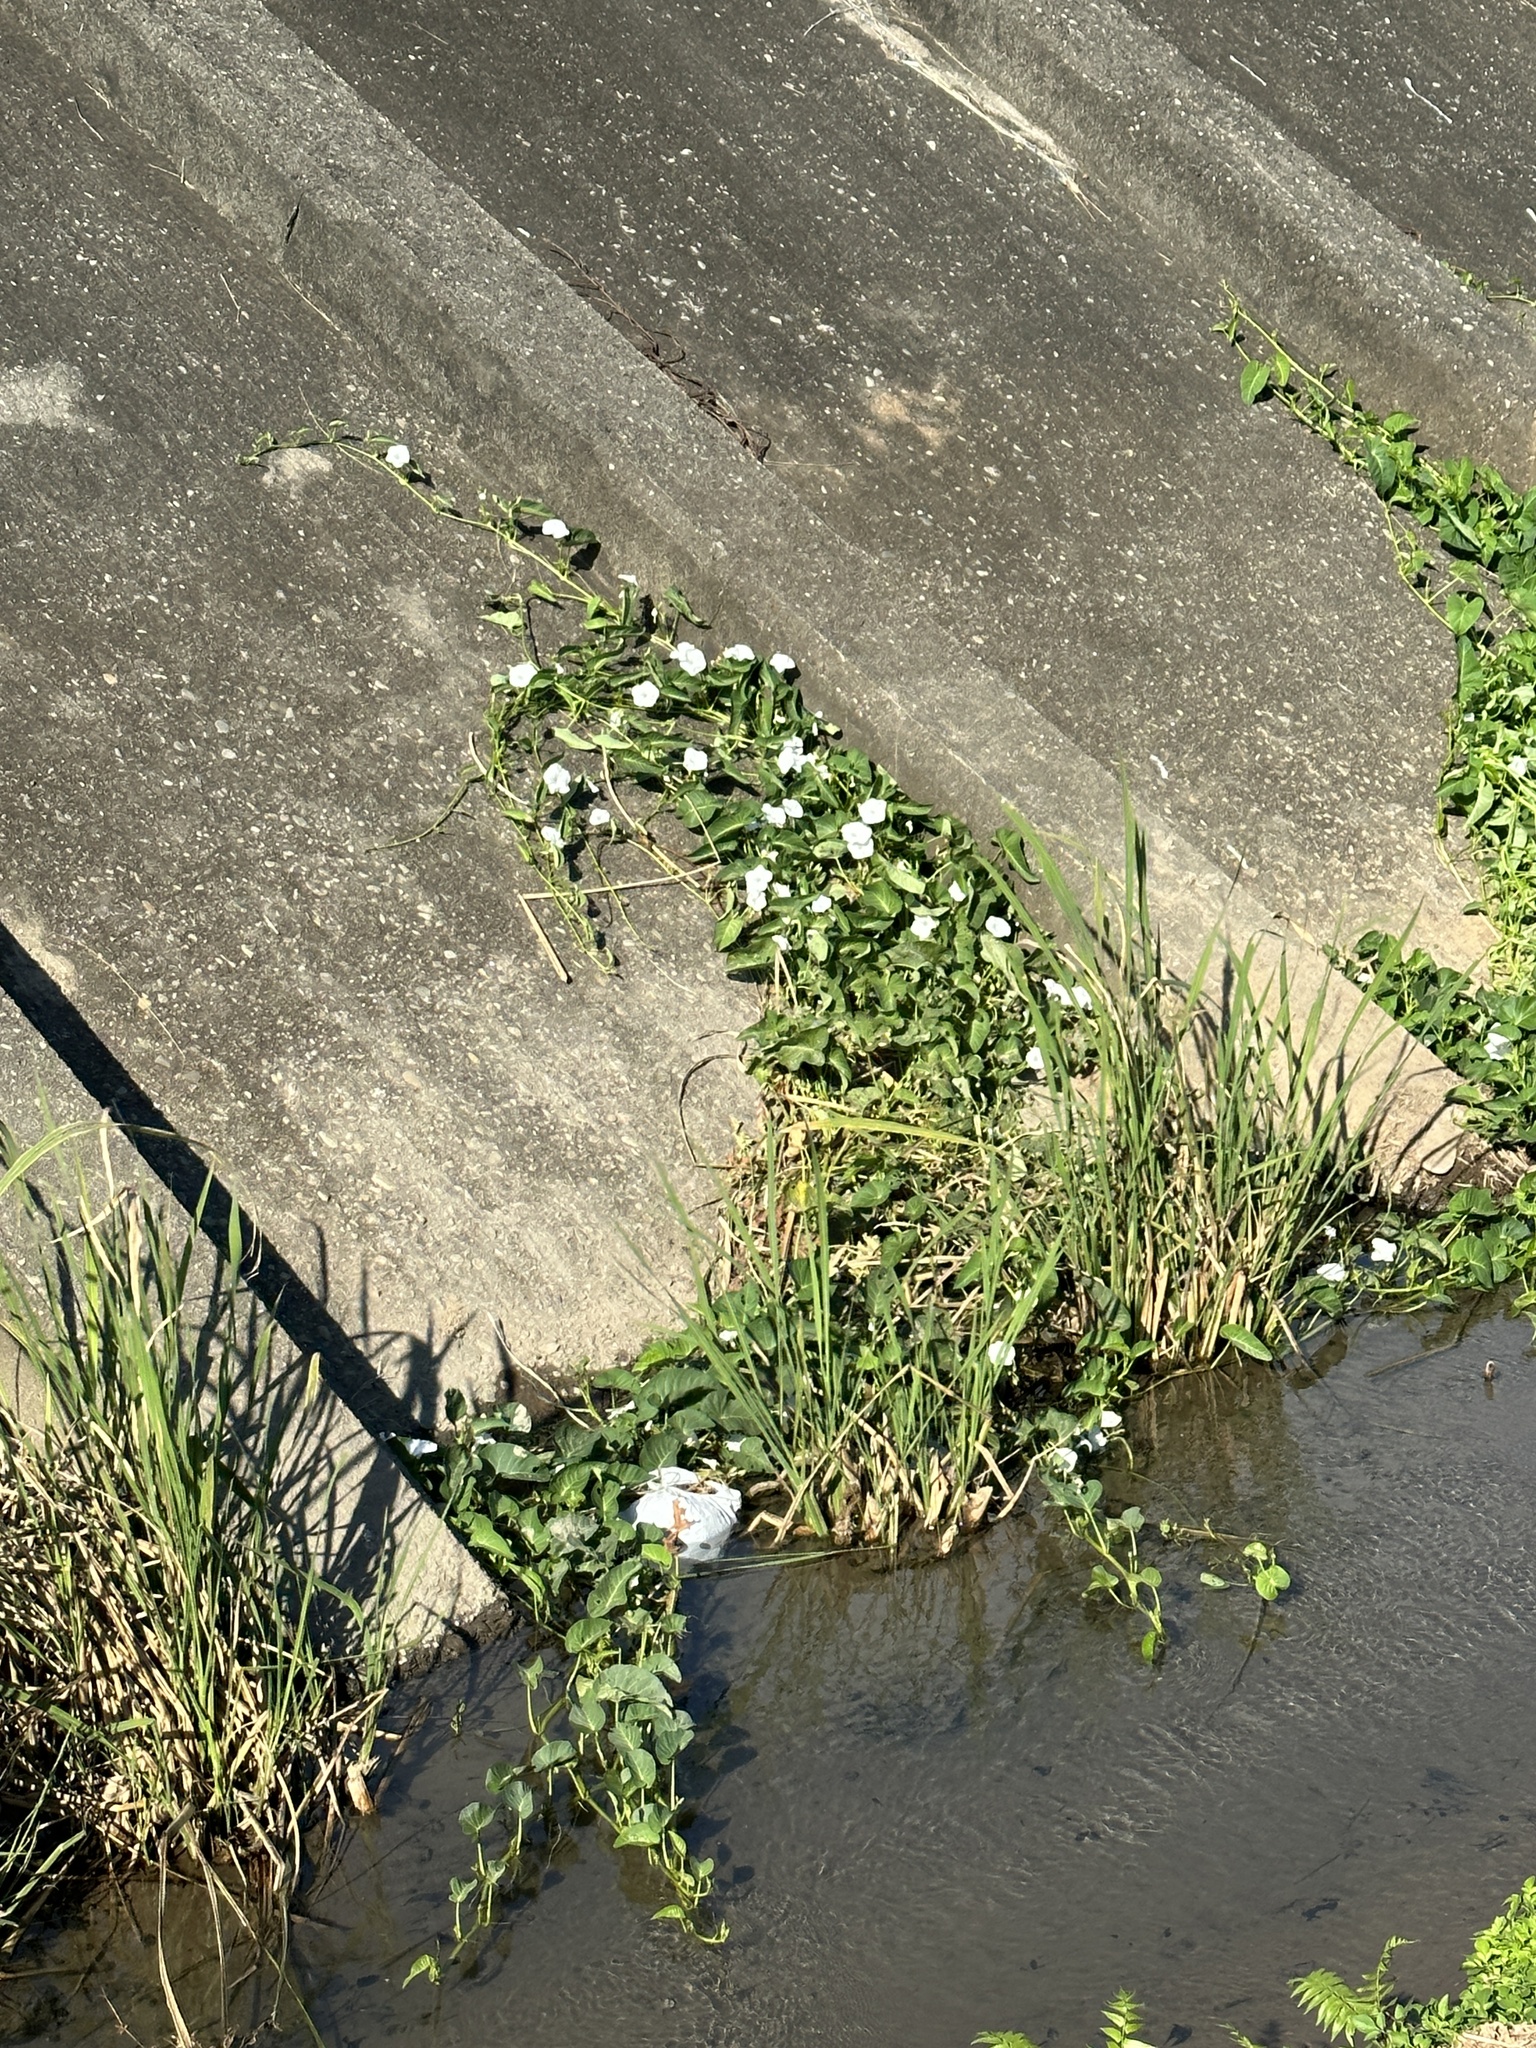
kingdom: Plantae
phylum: Tracheophyta
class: Magnoliopsida
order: Solanales
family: Convolvulaceae
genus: Ipomoea
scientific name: Ipomoea aquatica
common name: Swamp morning-glory
